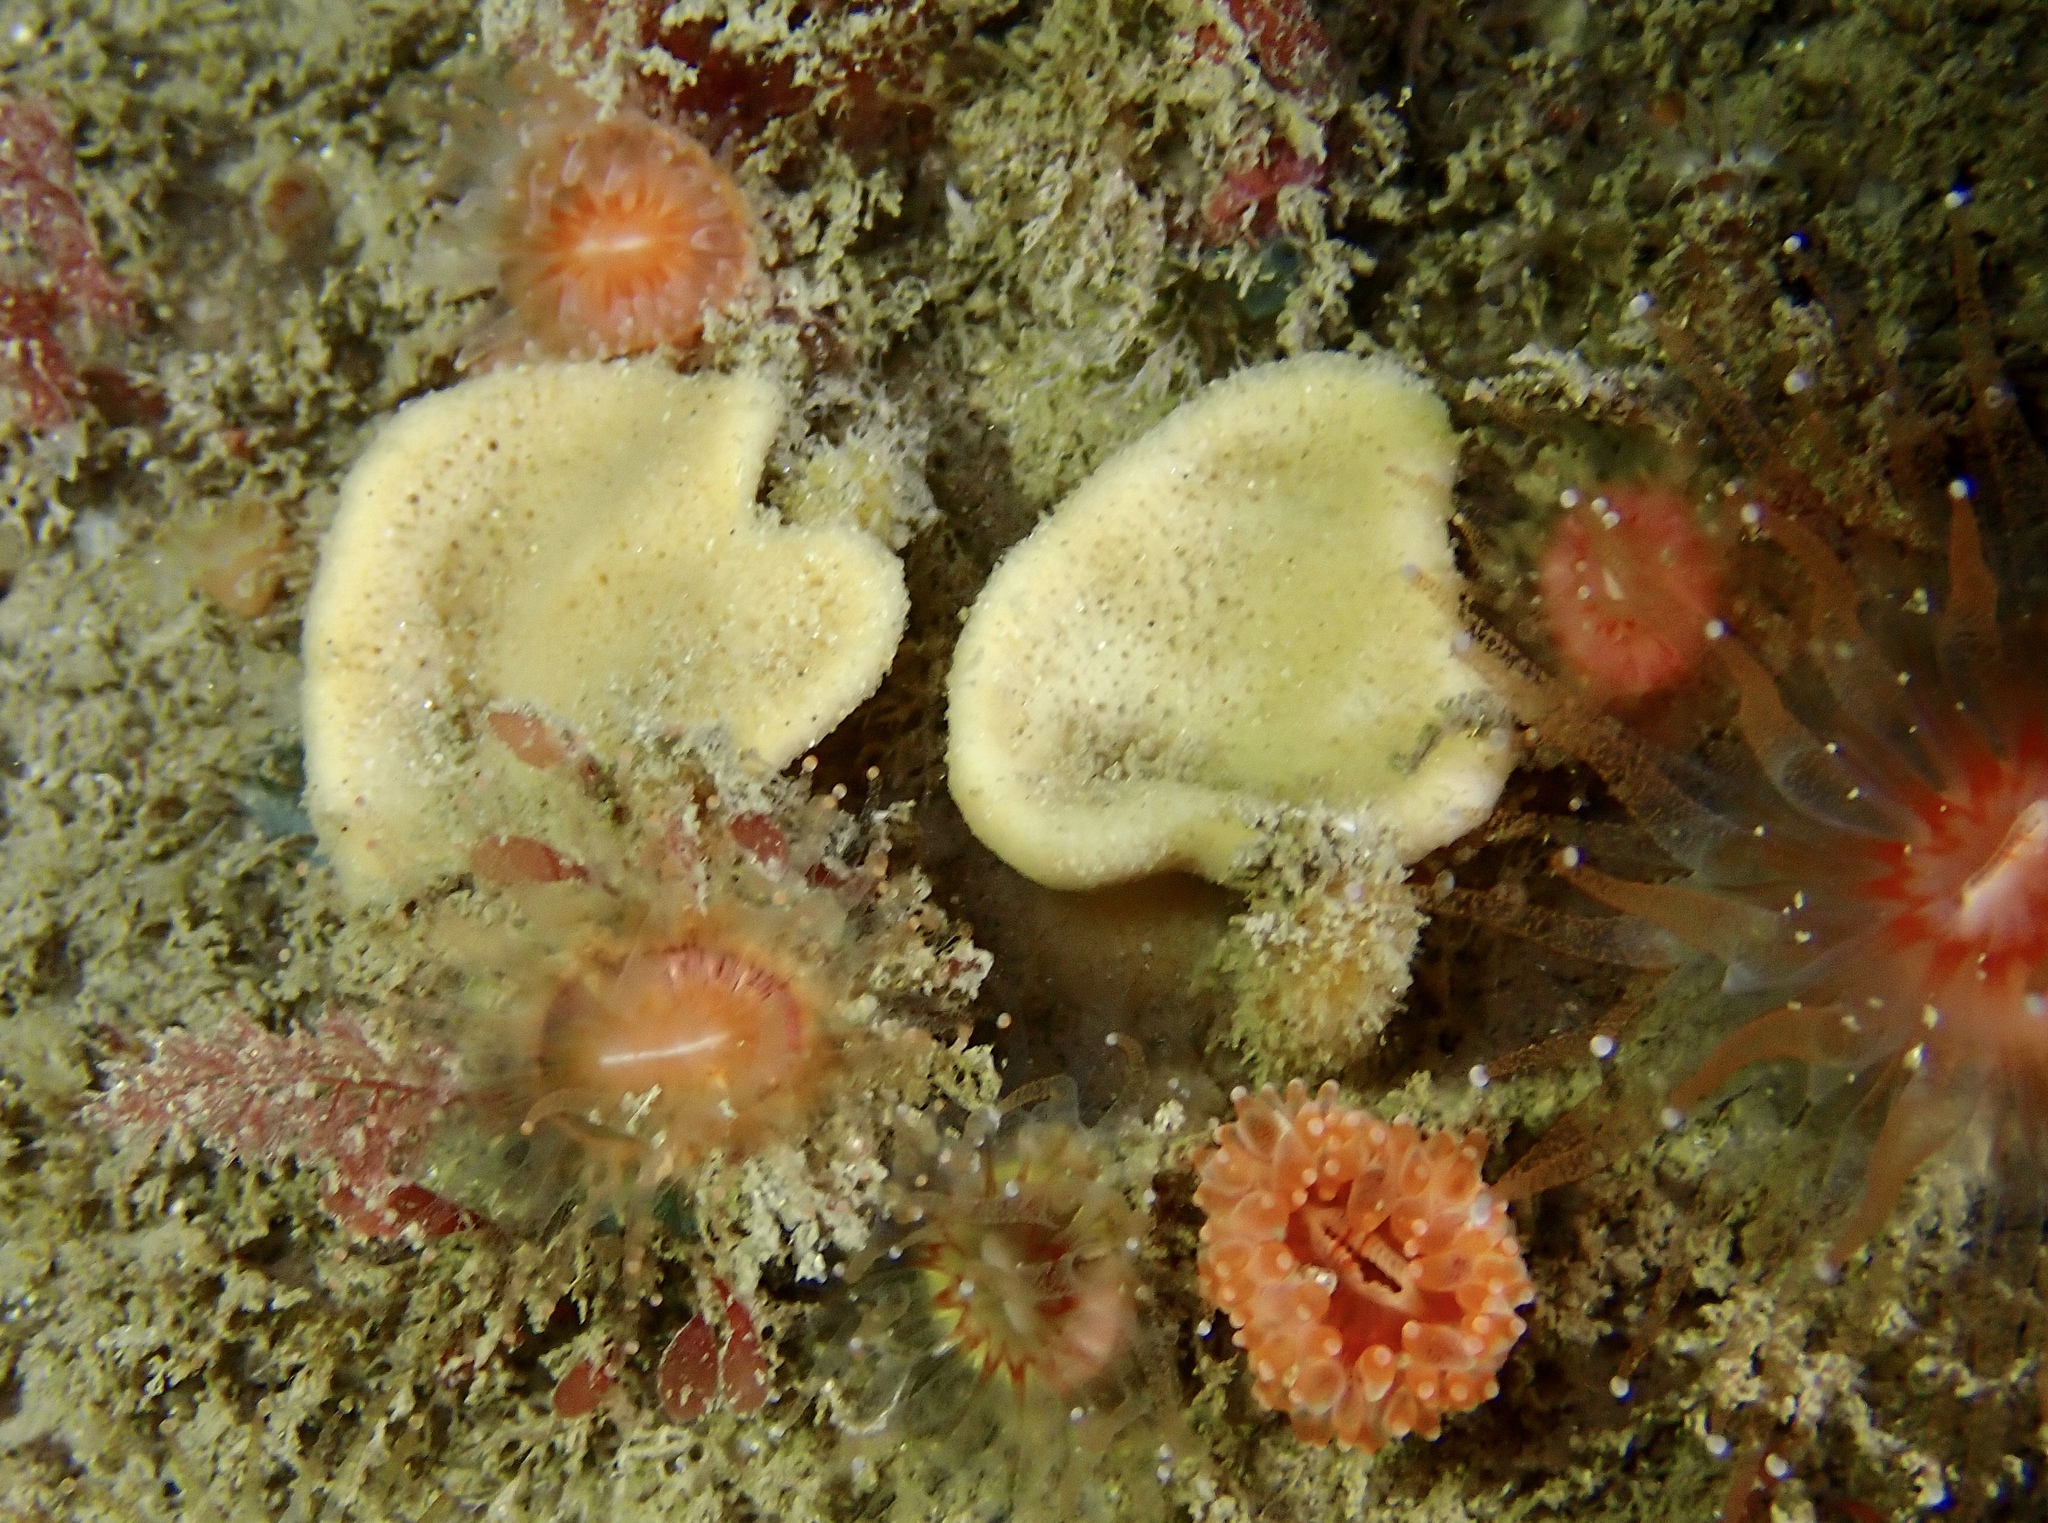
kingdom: Animalia
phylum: Porifera
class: Demospongiae
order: Axinellida
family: Axinellidae
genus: Axinella
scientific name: Axinella infundibuliformis
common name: North atlantic cup sponge
